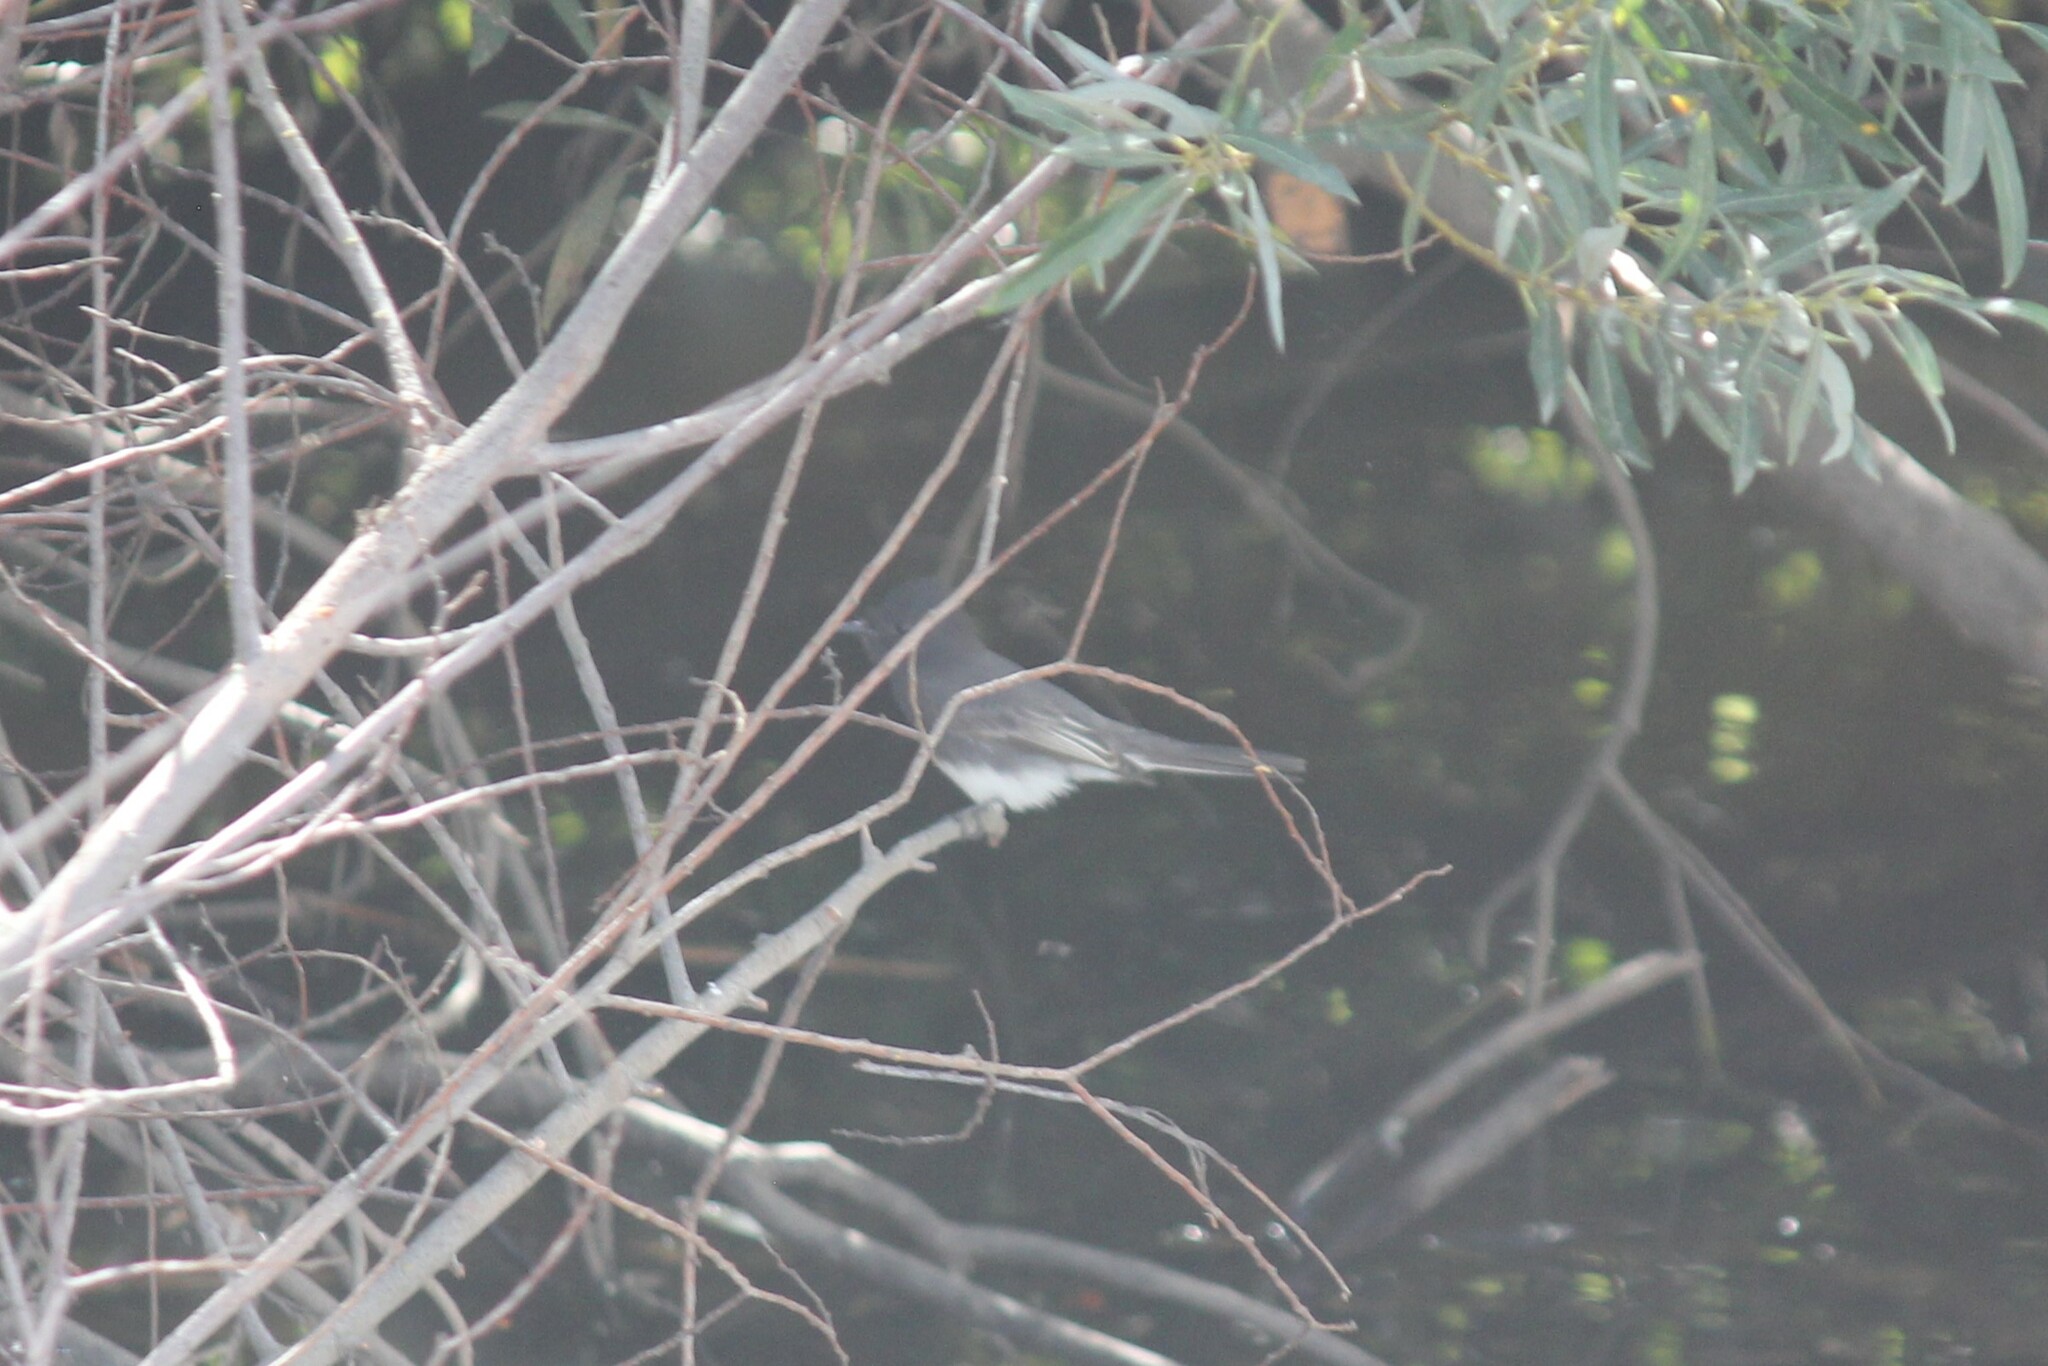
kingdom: Animalia
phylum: Chordata
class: Aves
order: Passeriformes
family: Tyrannidae
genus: Sayornis
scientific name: Sayornis nigricans
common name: Black phoebe
